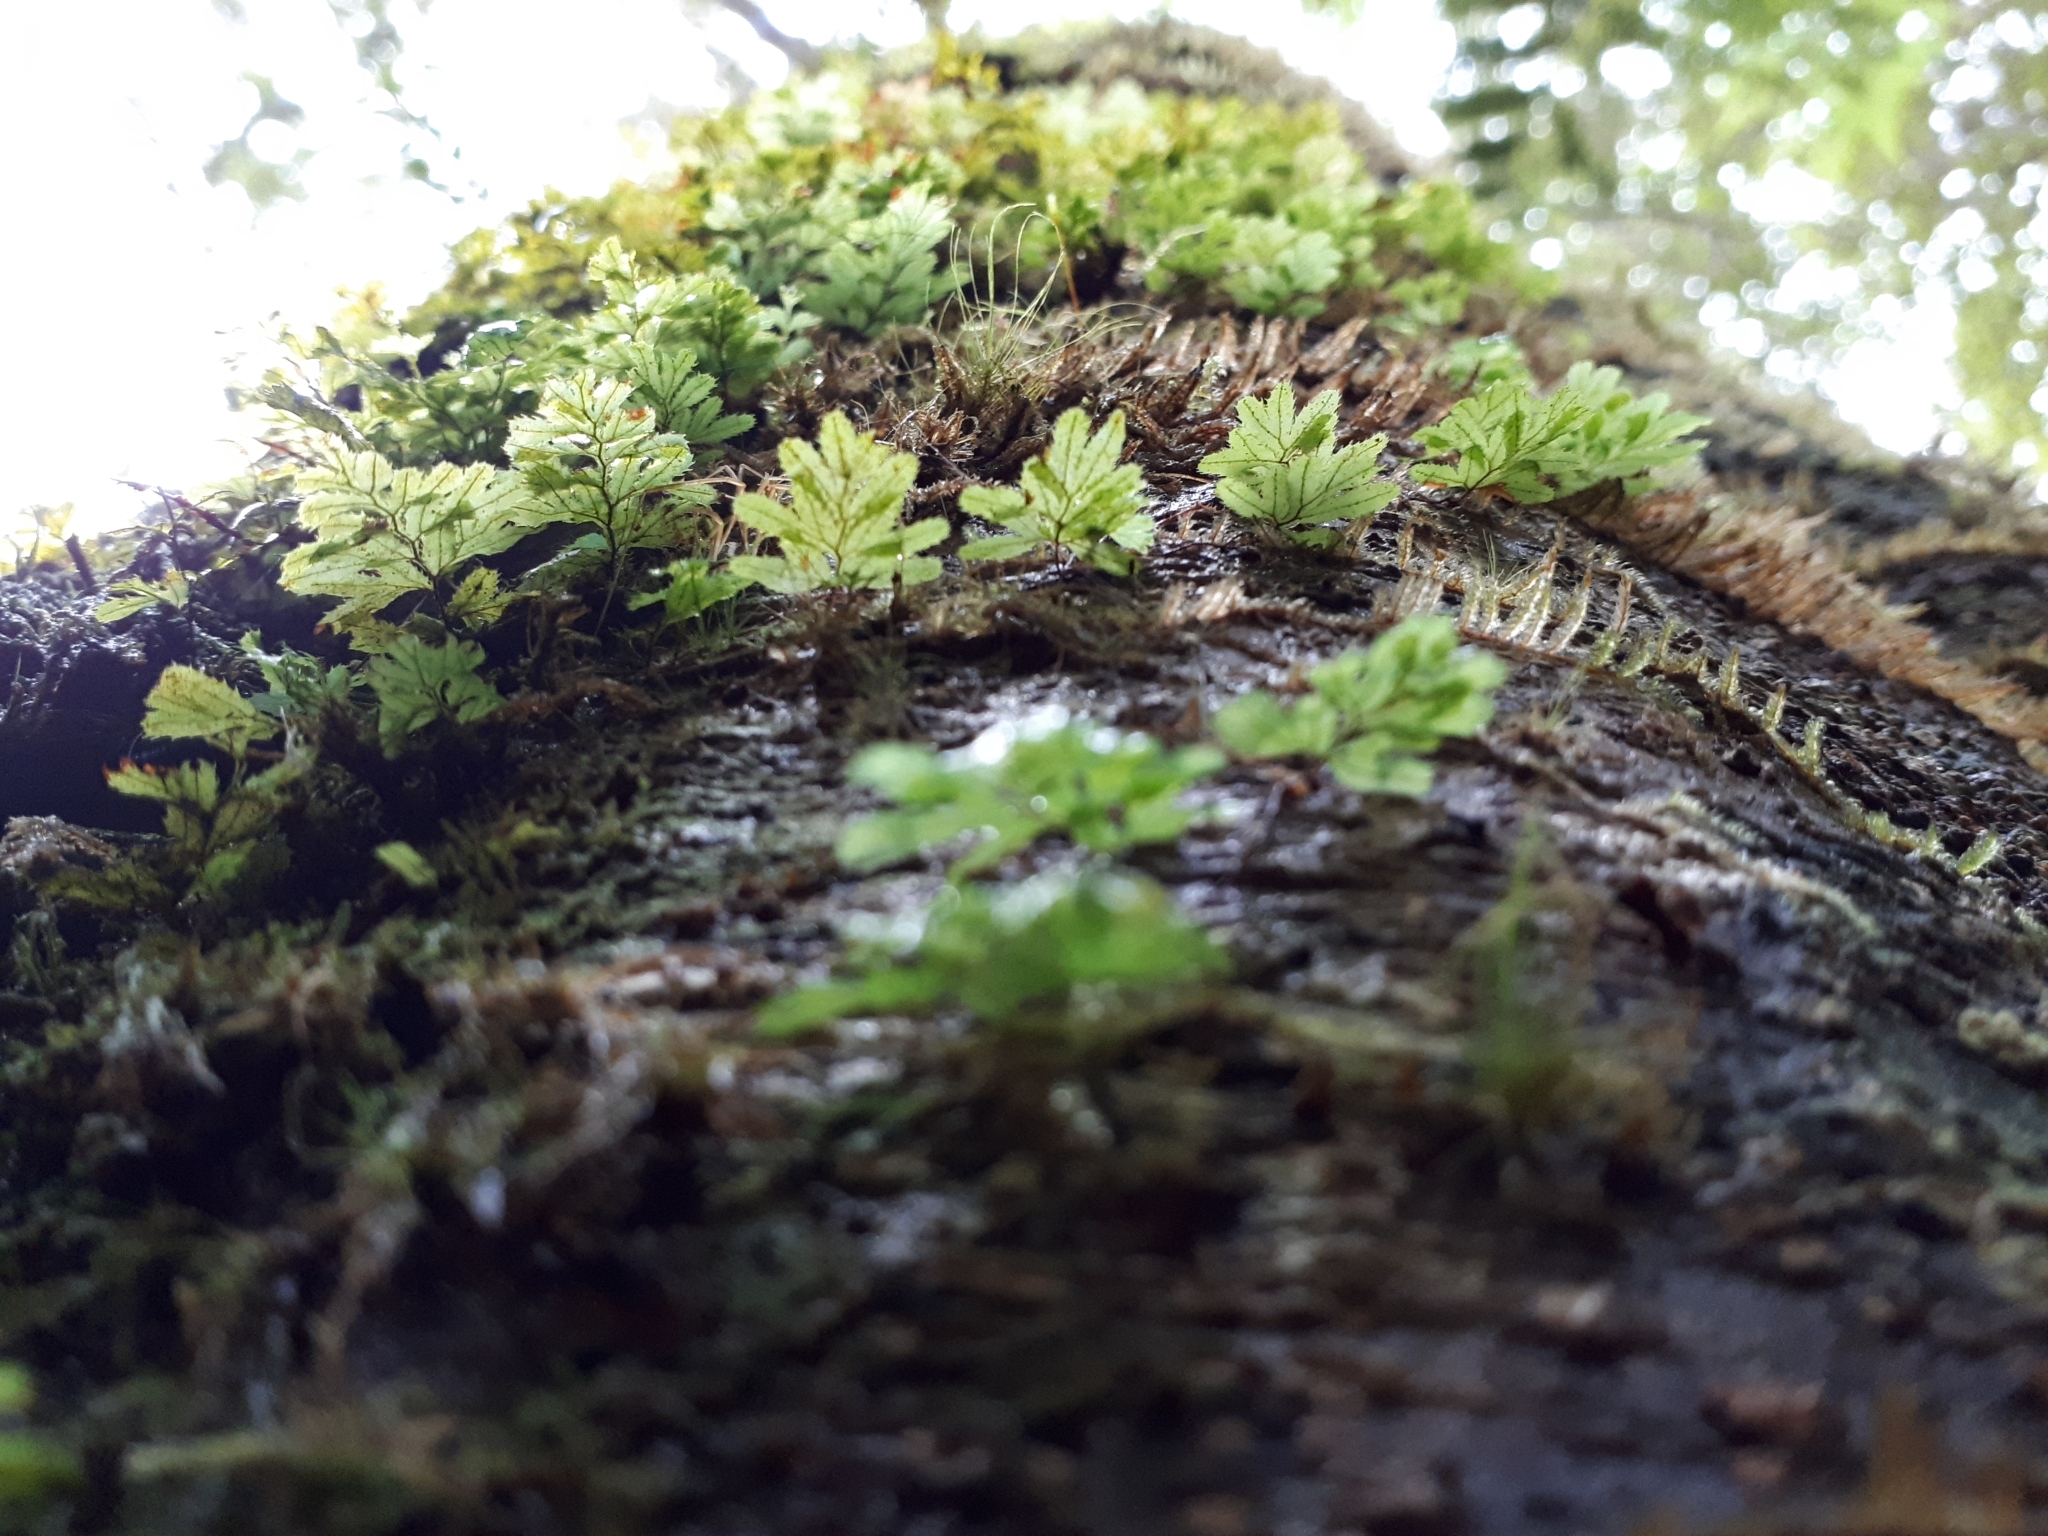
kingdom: Plantae
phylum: Tracheophyta
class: Polypodiopsida
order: Hymenophyllales
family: Hymenophyllaceae
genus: Hymenophyllum
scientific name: Hymenophyllum revolutum
